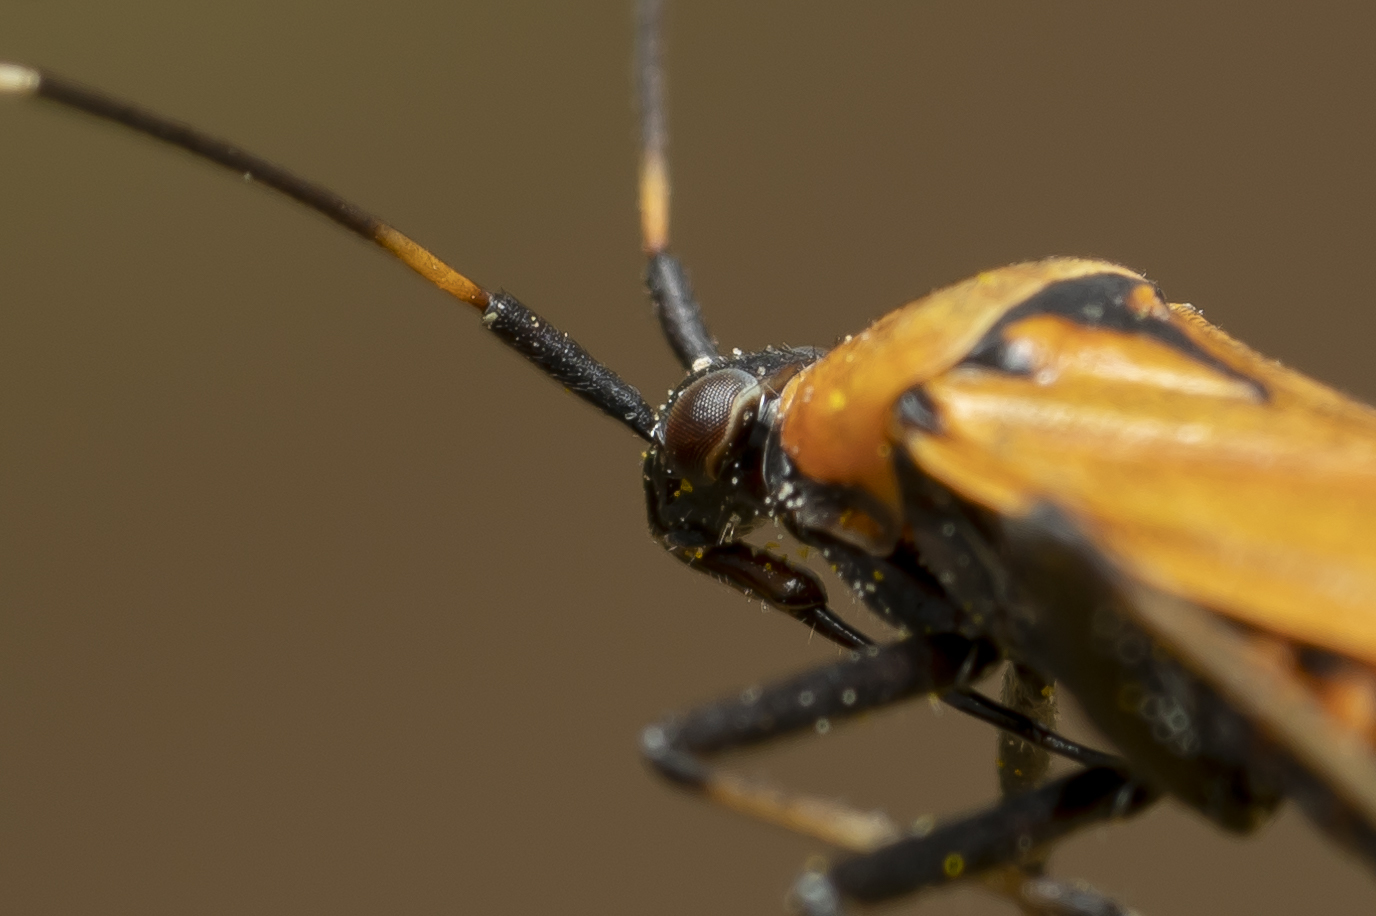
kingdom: Animalia
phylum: Arthropoda
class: Insecta
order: Hemiptera
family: Miridae
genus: Calocoris
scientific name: Calocoris nemoralis
